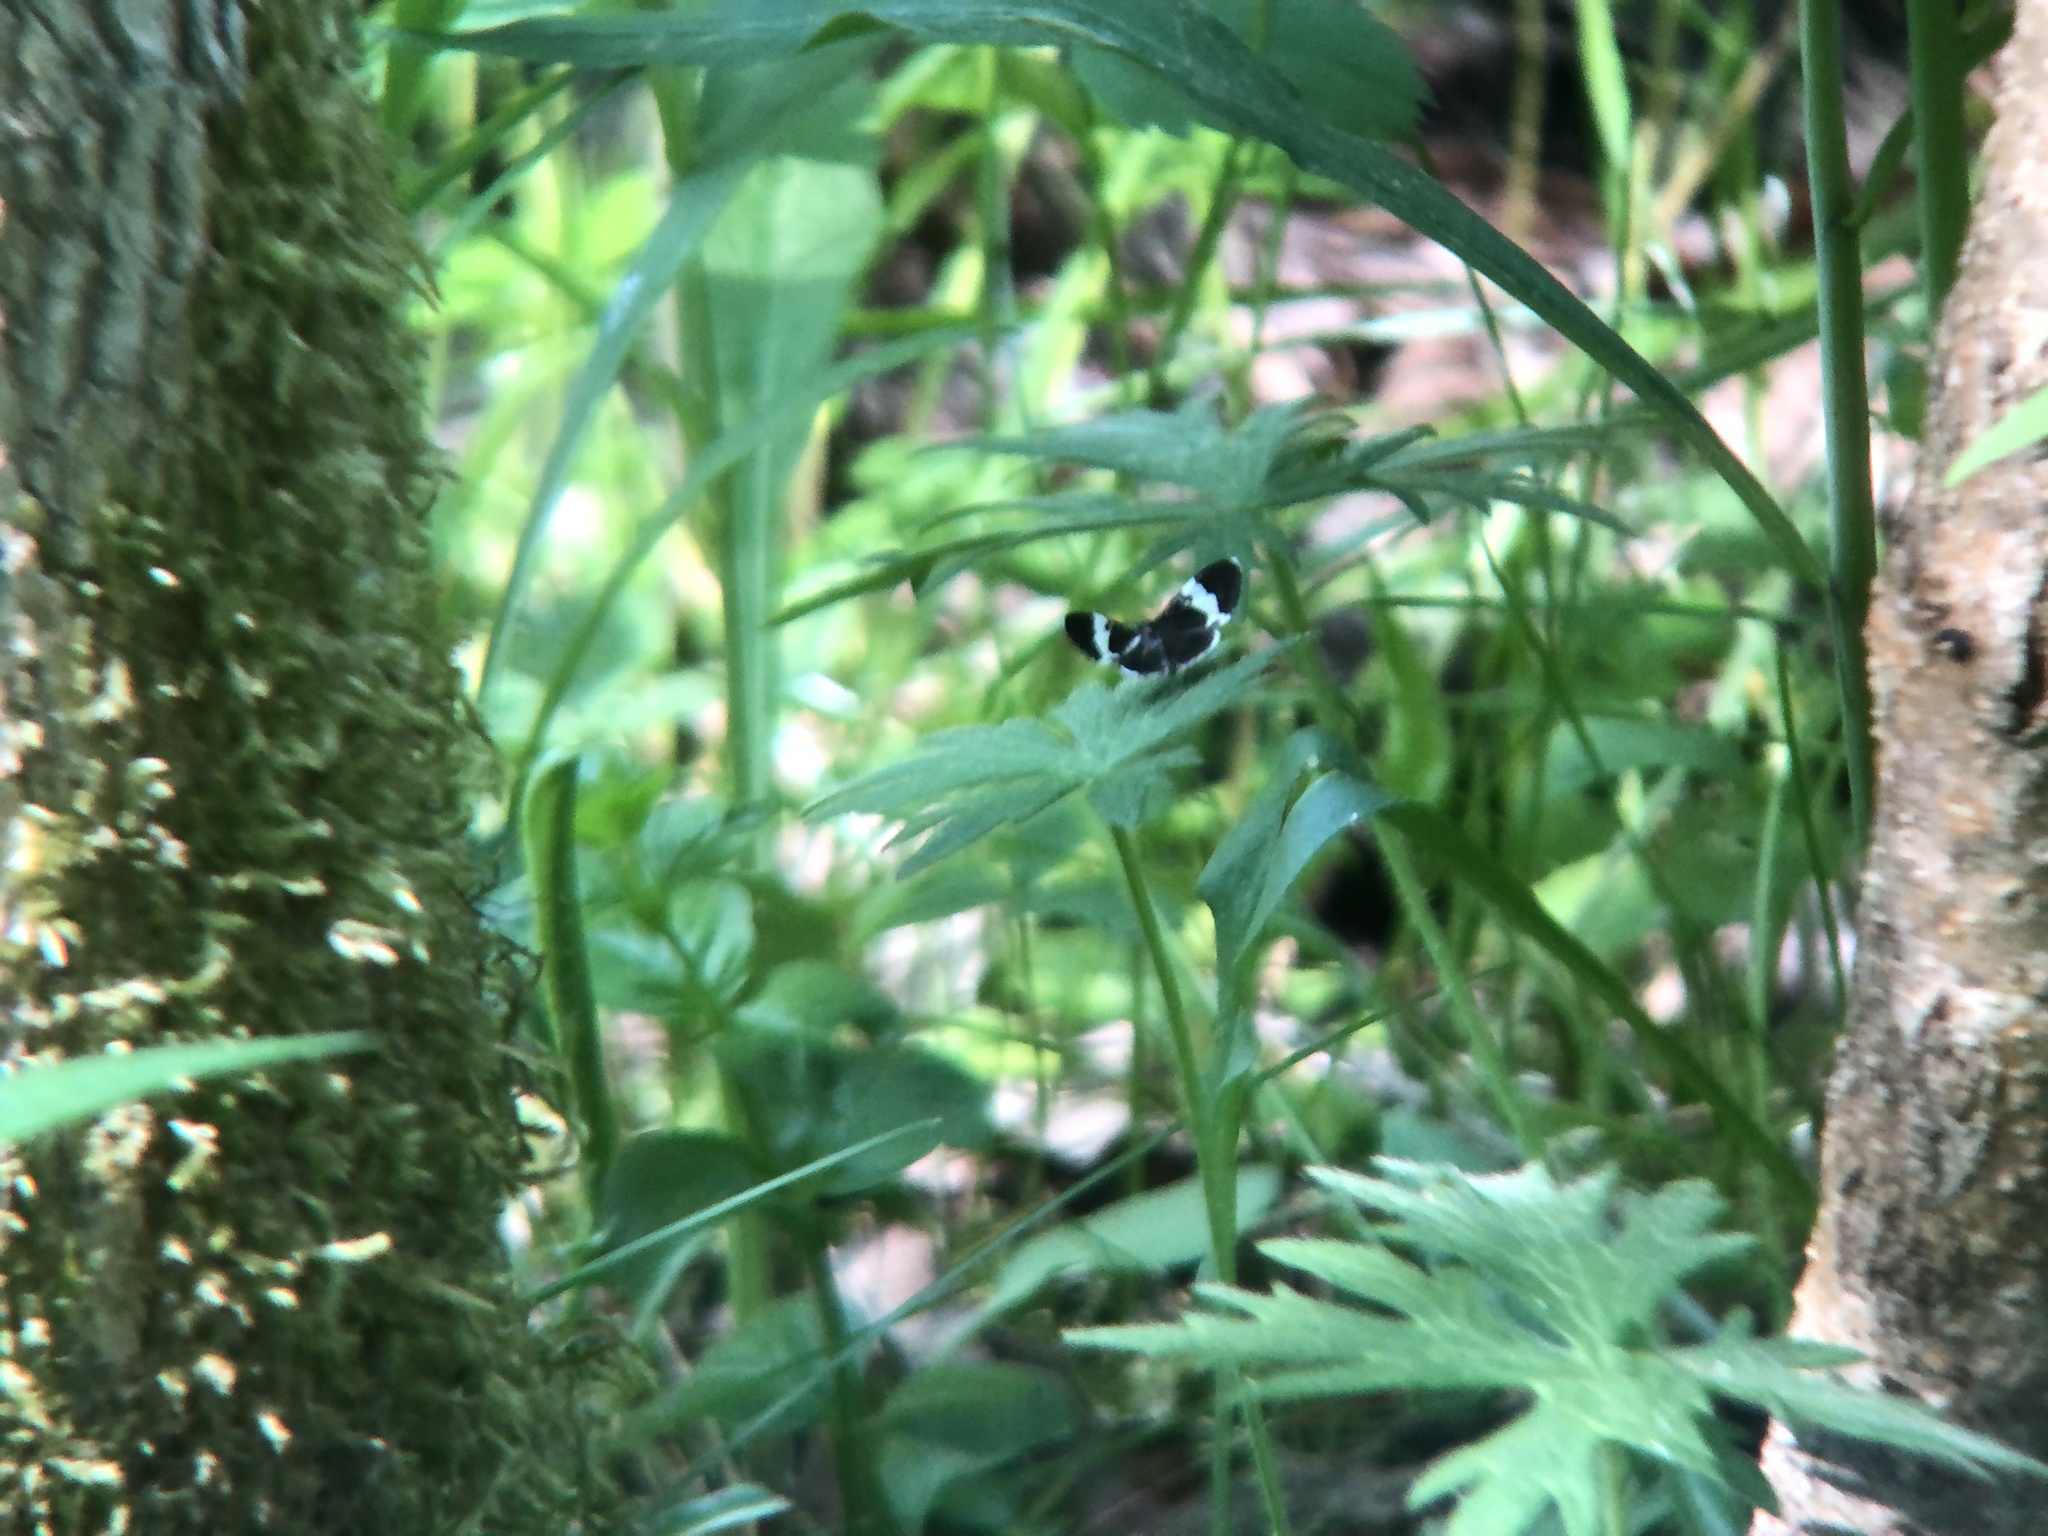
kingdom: Animalia
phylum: Arthropoda
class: Insecta
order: Lepidoptera
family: Geometridae
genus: Trichodezia
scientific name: Trichodezia albovittata
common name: White striped black
